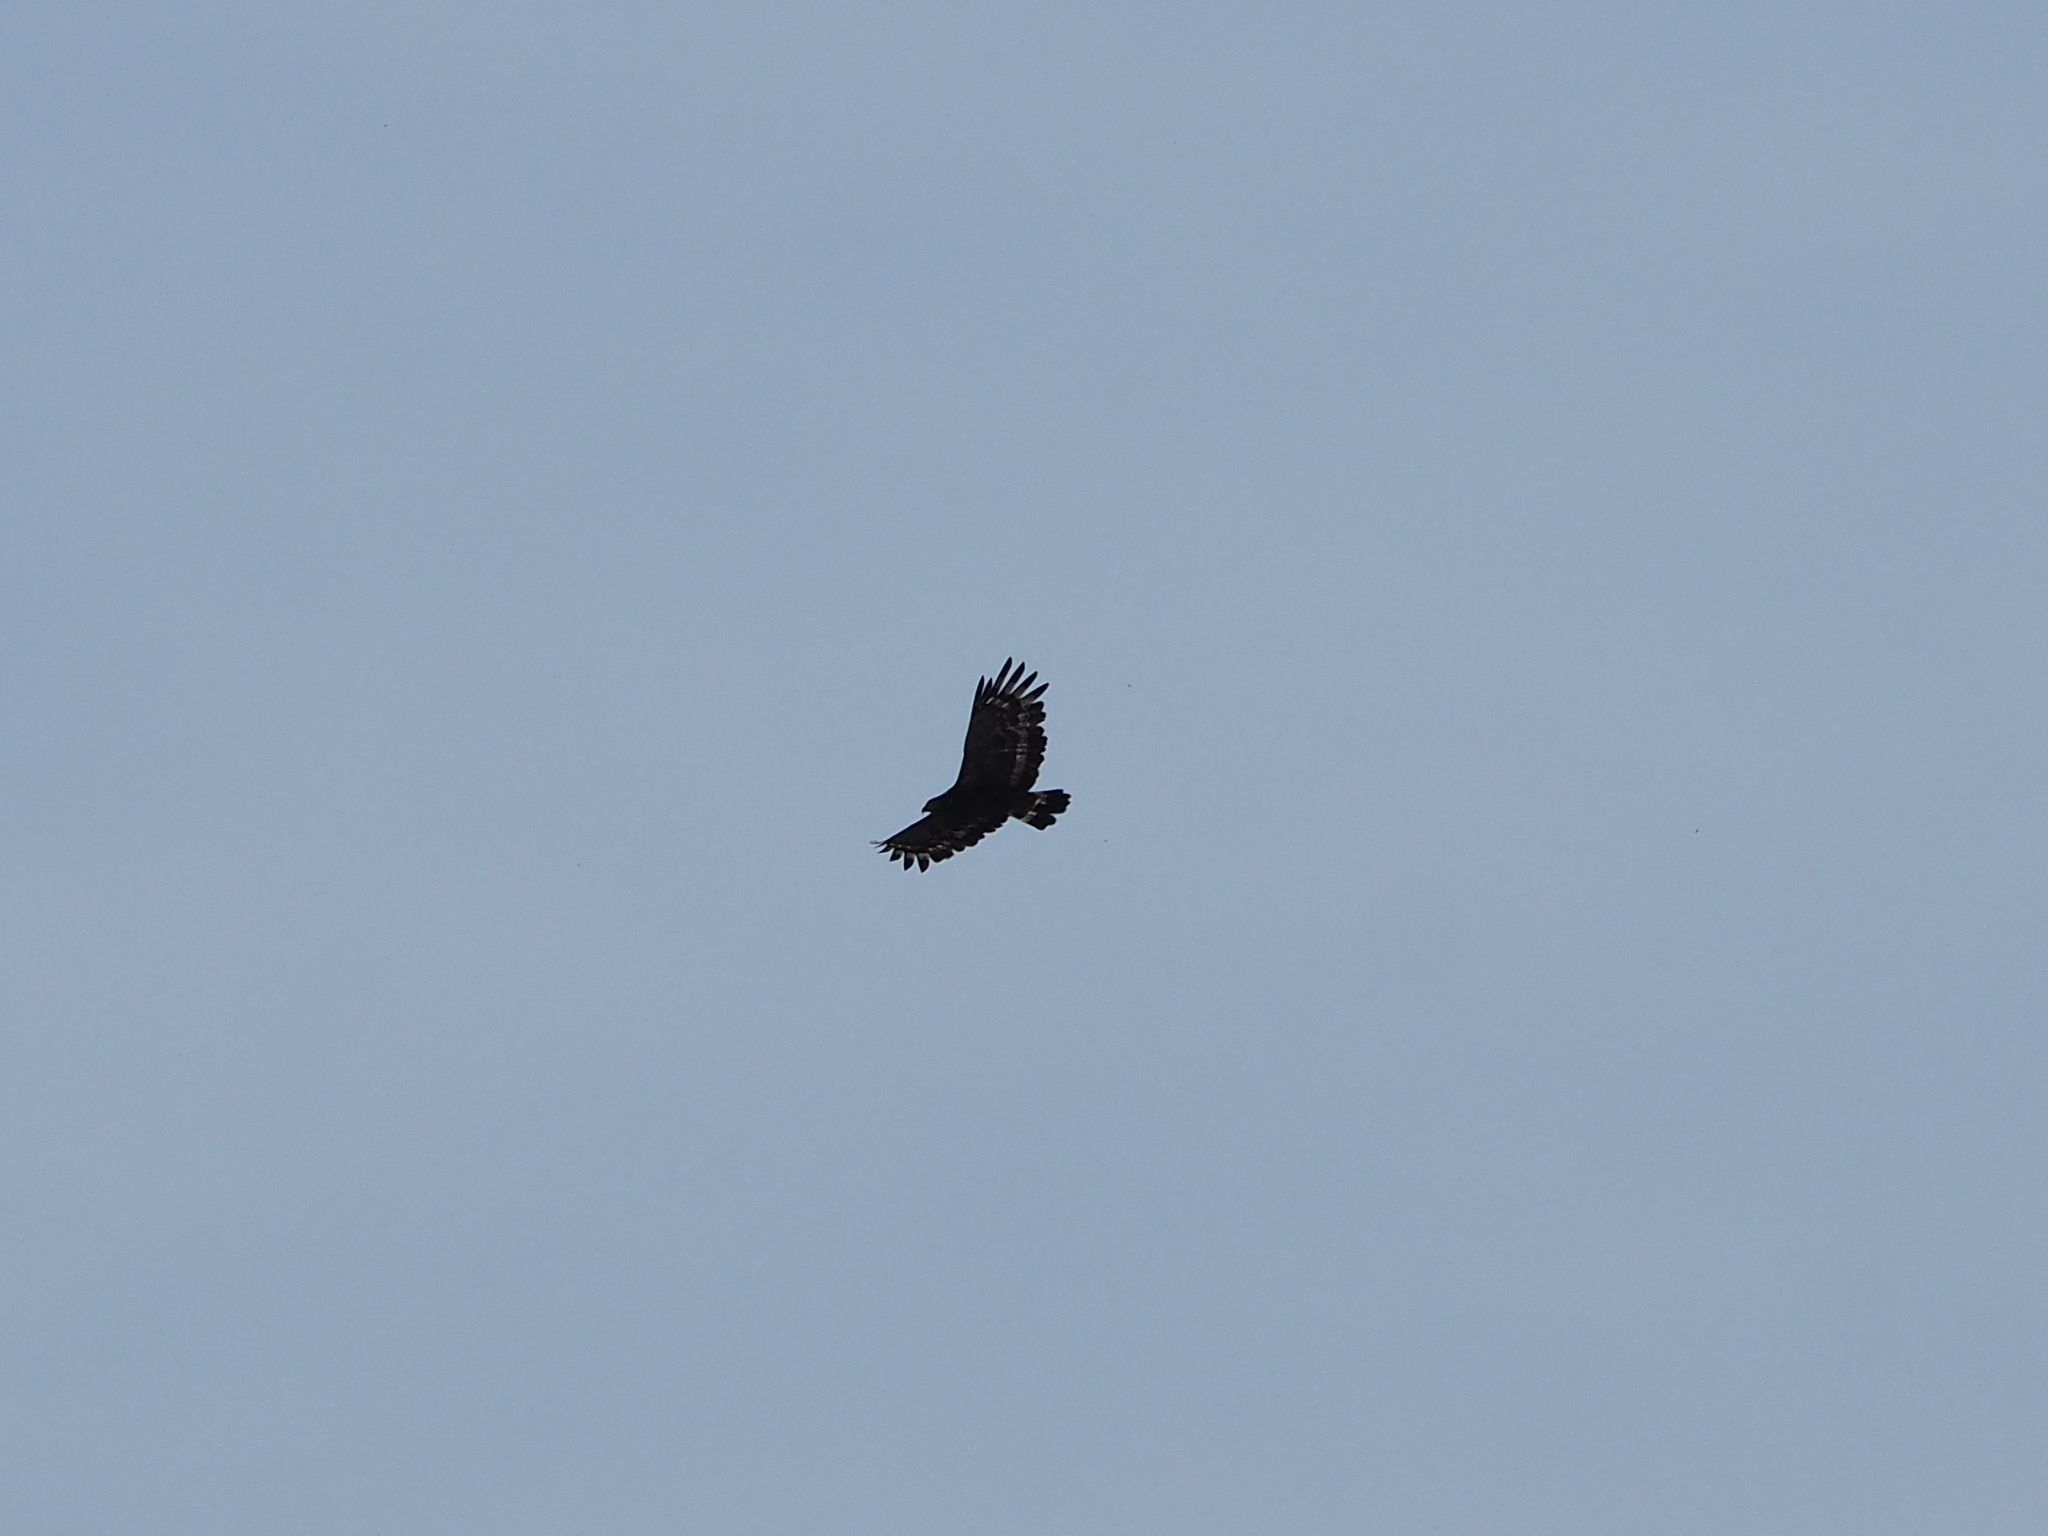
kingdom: Animalia
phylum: Chordata
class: Aves
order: Accipitriformes
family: Accipitridae
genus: Spilornis
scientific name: Spilornis cheela
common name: Crested serpent eagle
